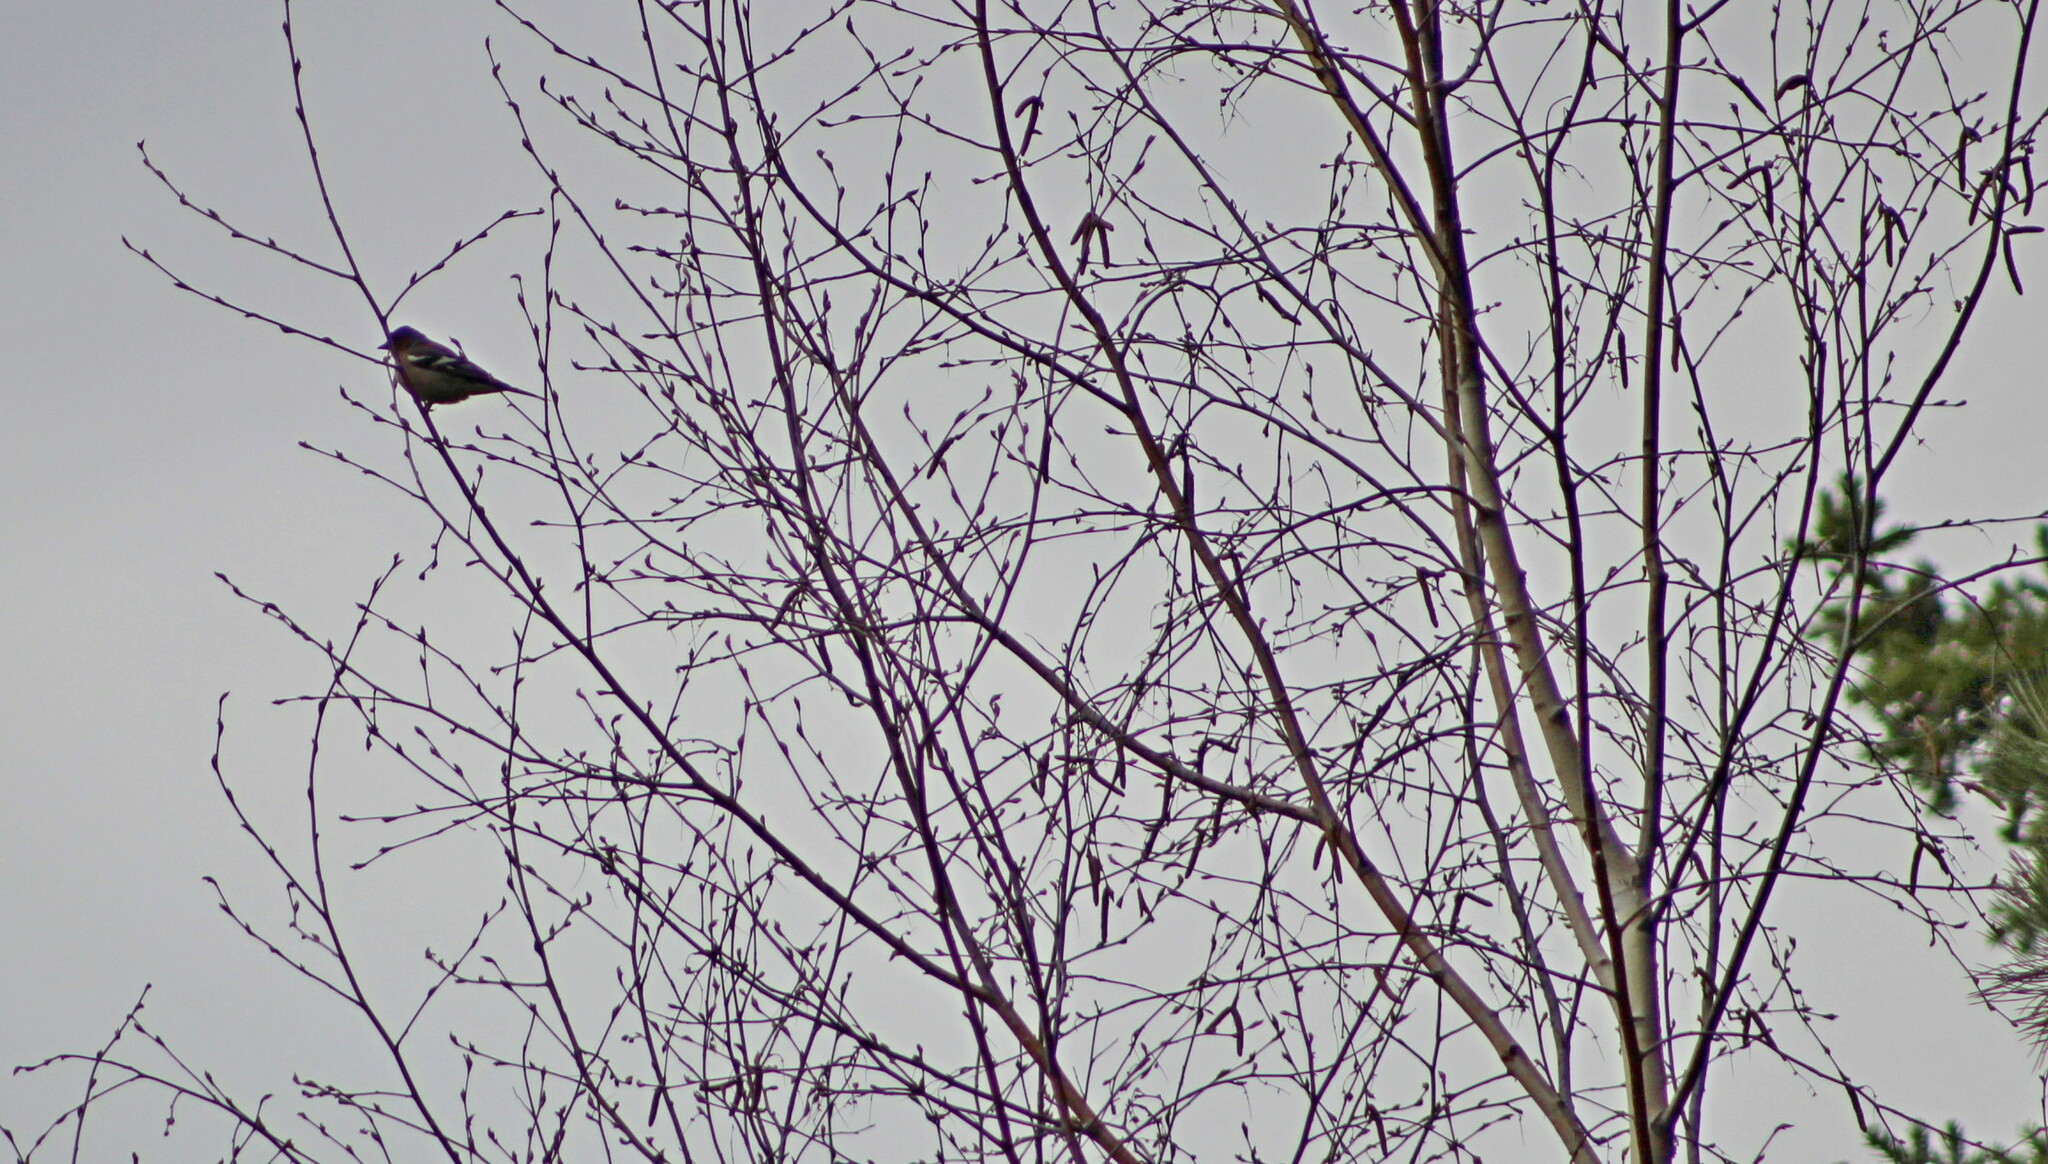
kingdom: Animalia
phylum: Chordata
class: Aves
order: Passeriformes
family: Fringillidae
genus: Fringilla
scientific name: Fringilla coelebs
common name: Common chaffinch
